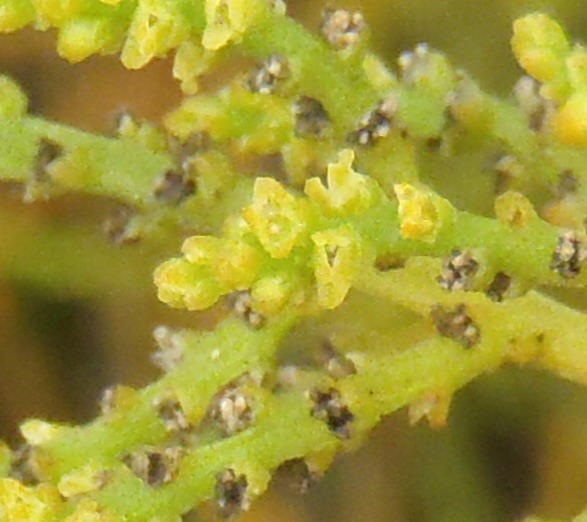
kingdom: Plantae
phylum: Tracheophyta
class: Magnoliopsida
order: Santalales
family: Thesiaceae
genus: Thesium
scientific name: Thesium fragile
